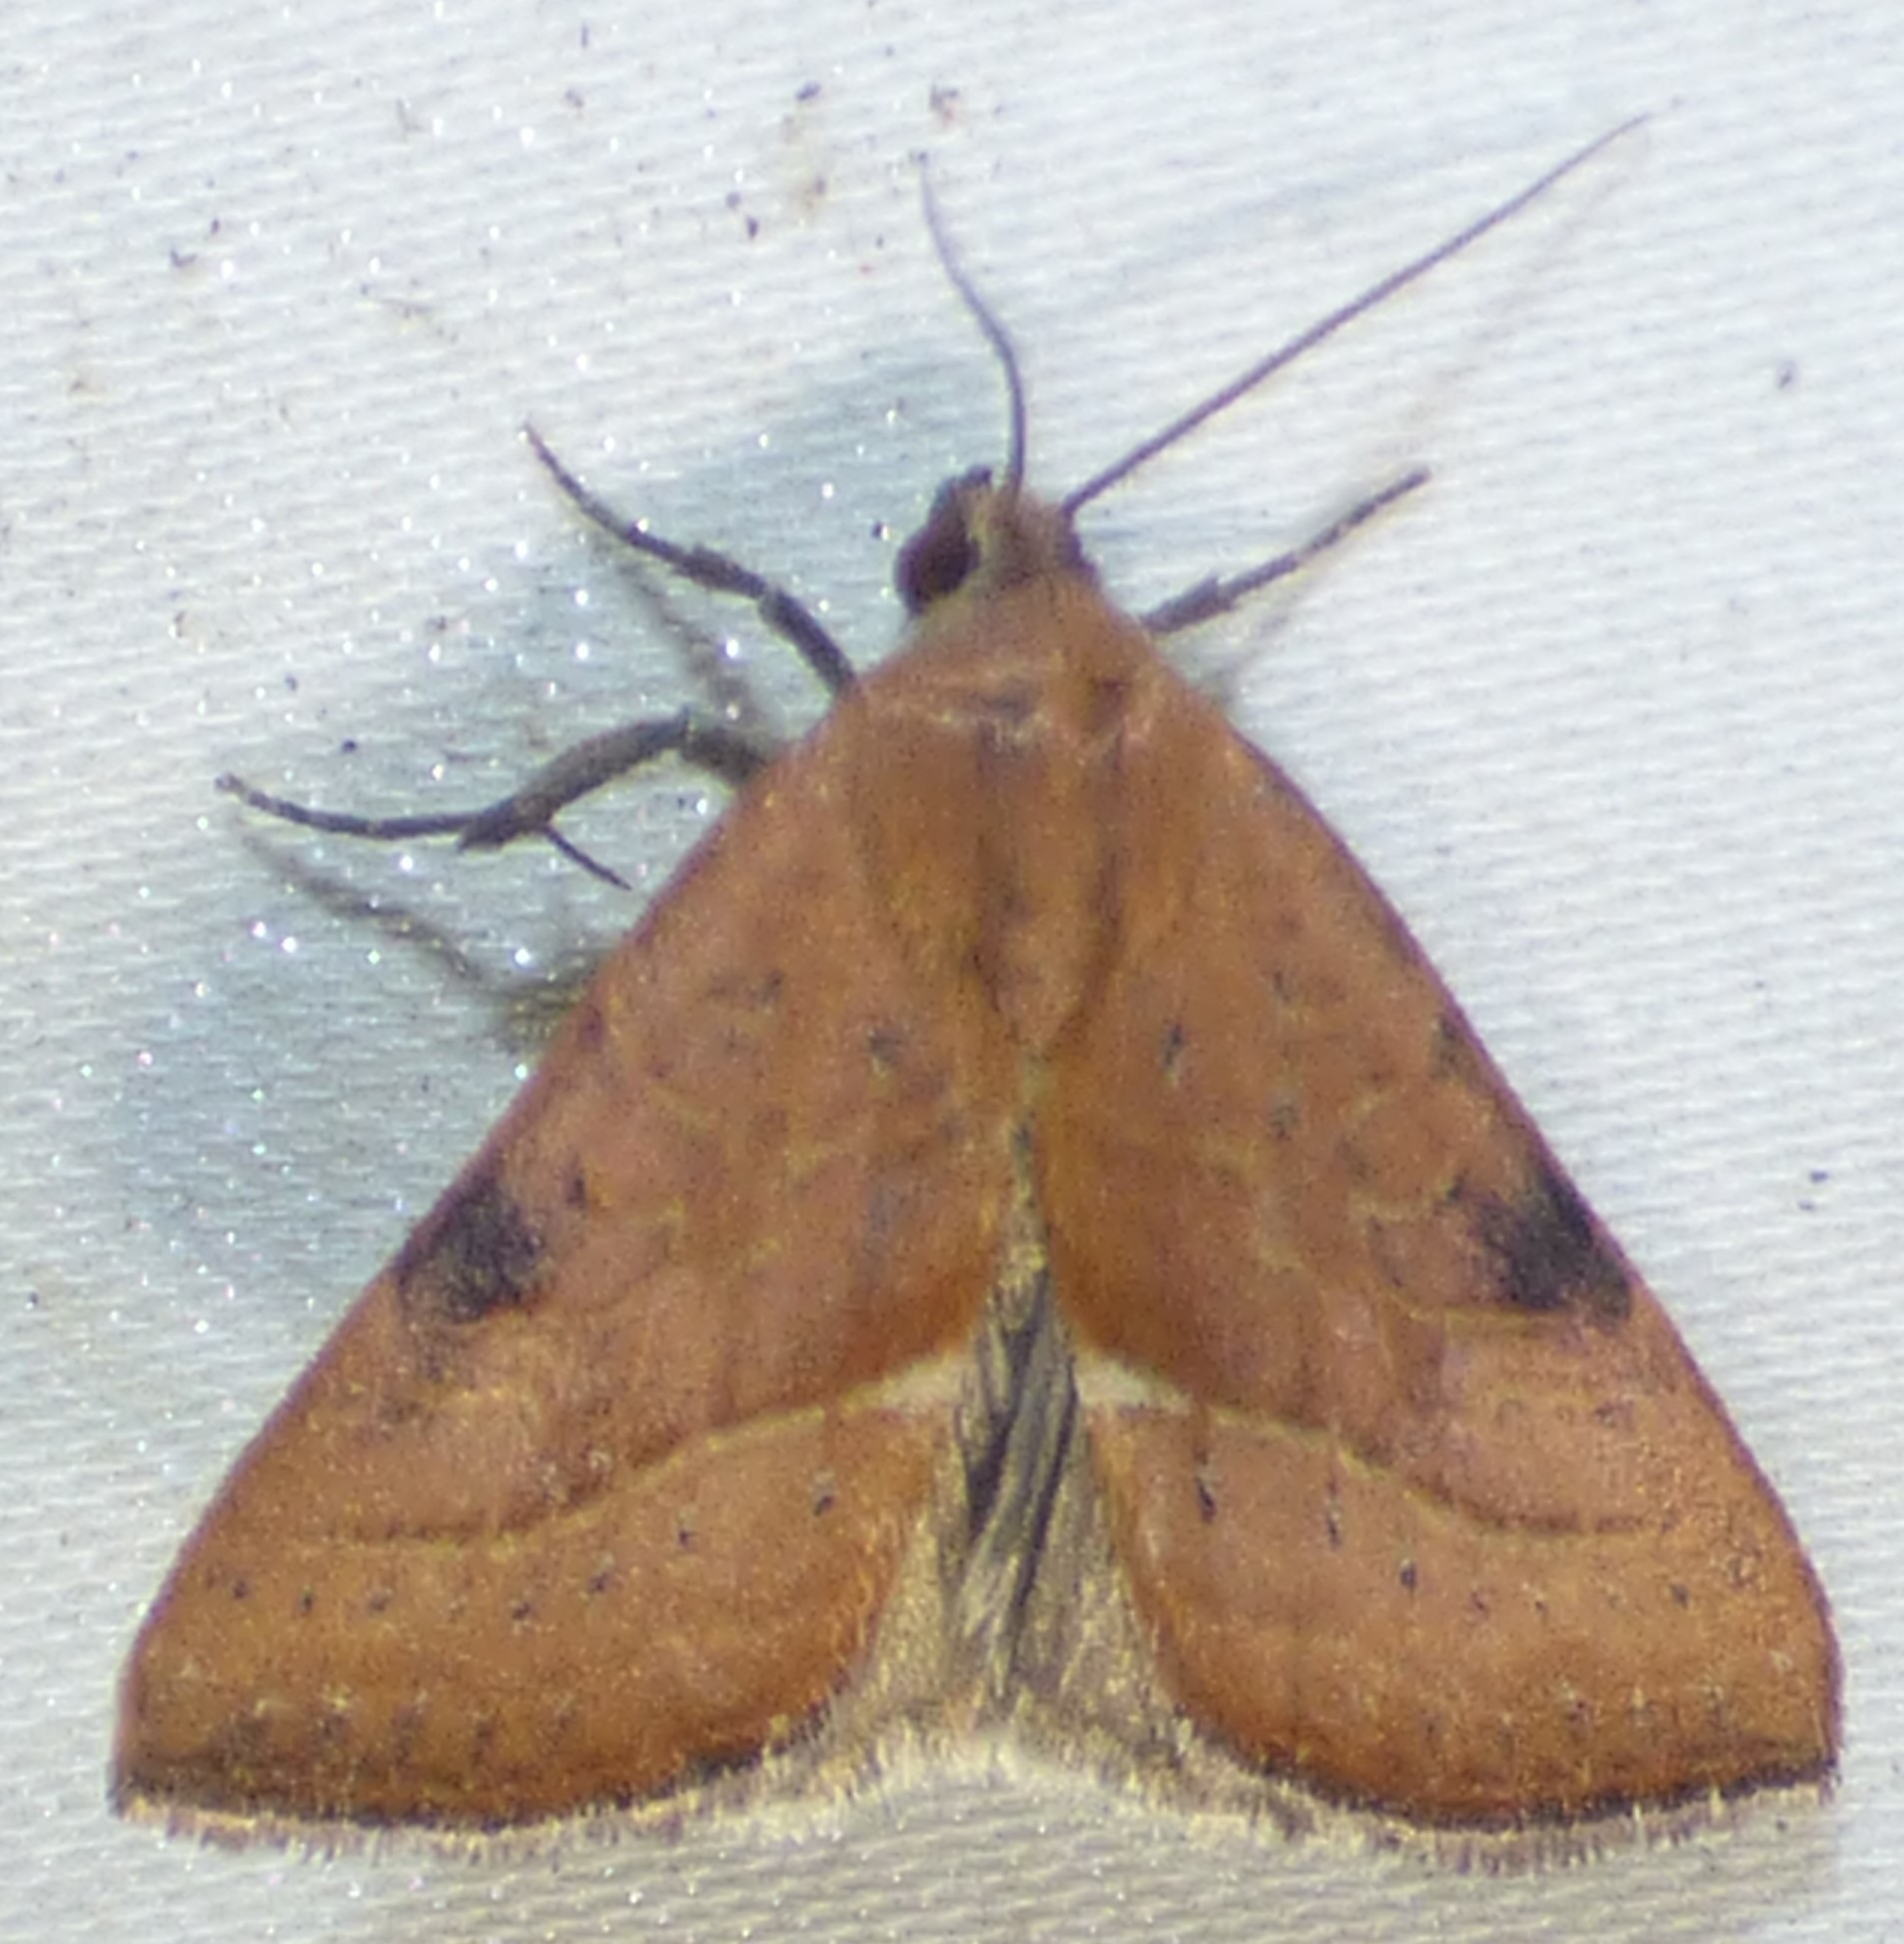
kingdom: Animalia
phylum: Arthropoda
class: Insecta
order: Lepidoptera
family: Noctuidae
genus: Galgula
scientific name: Galgula partita
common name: Wedgeling
